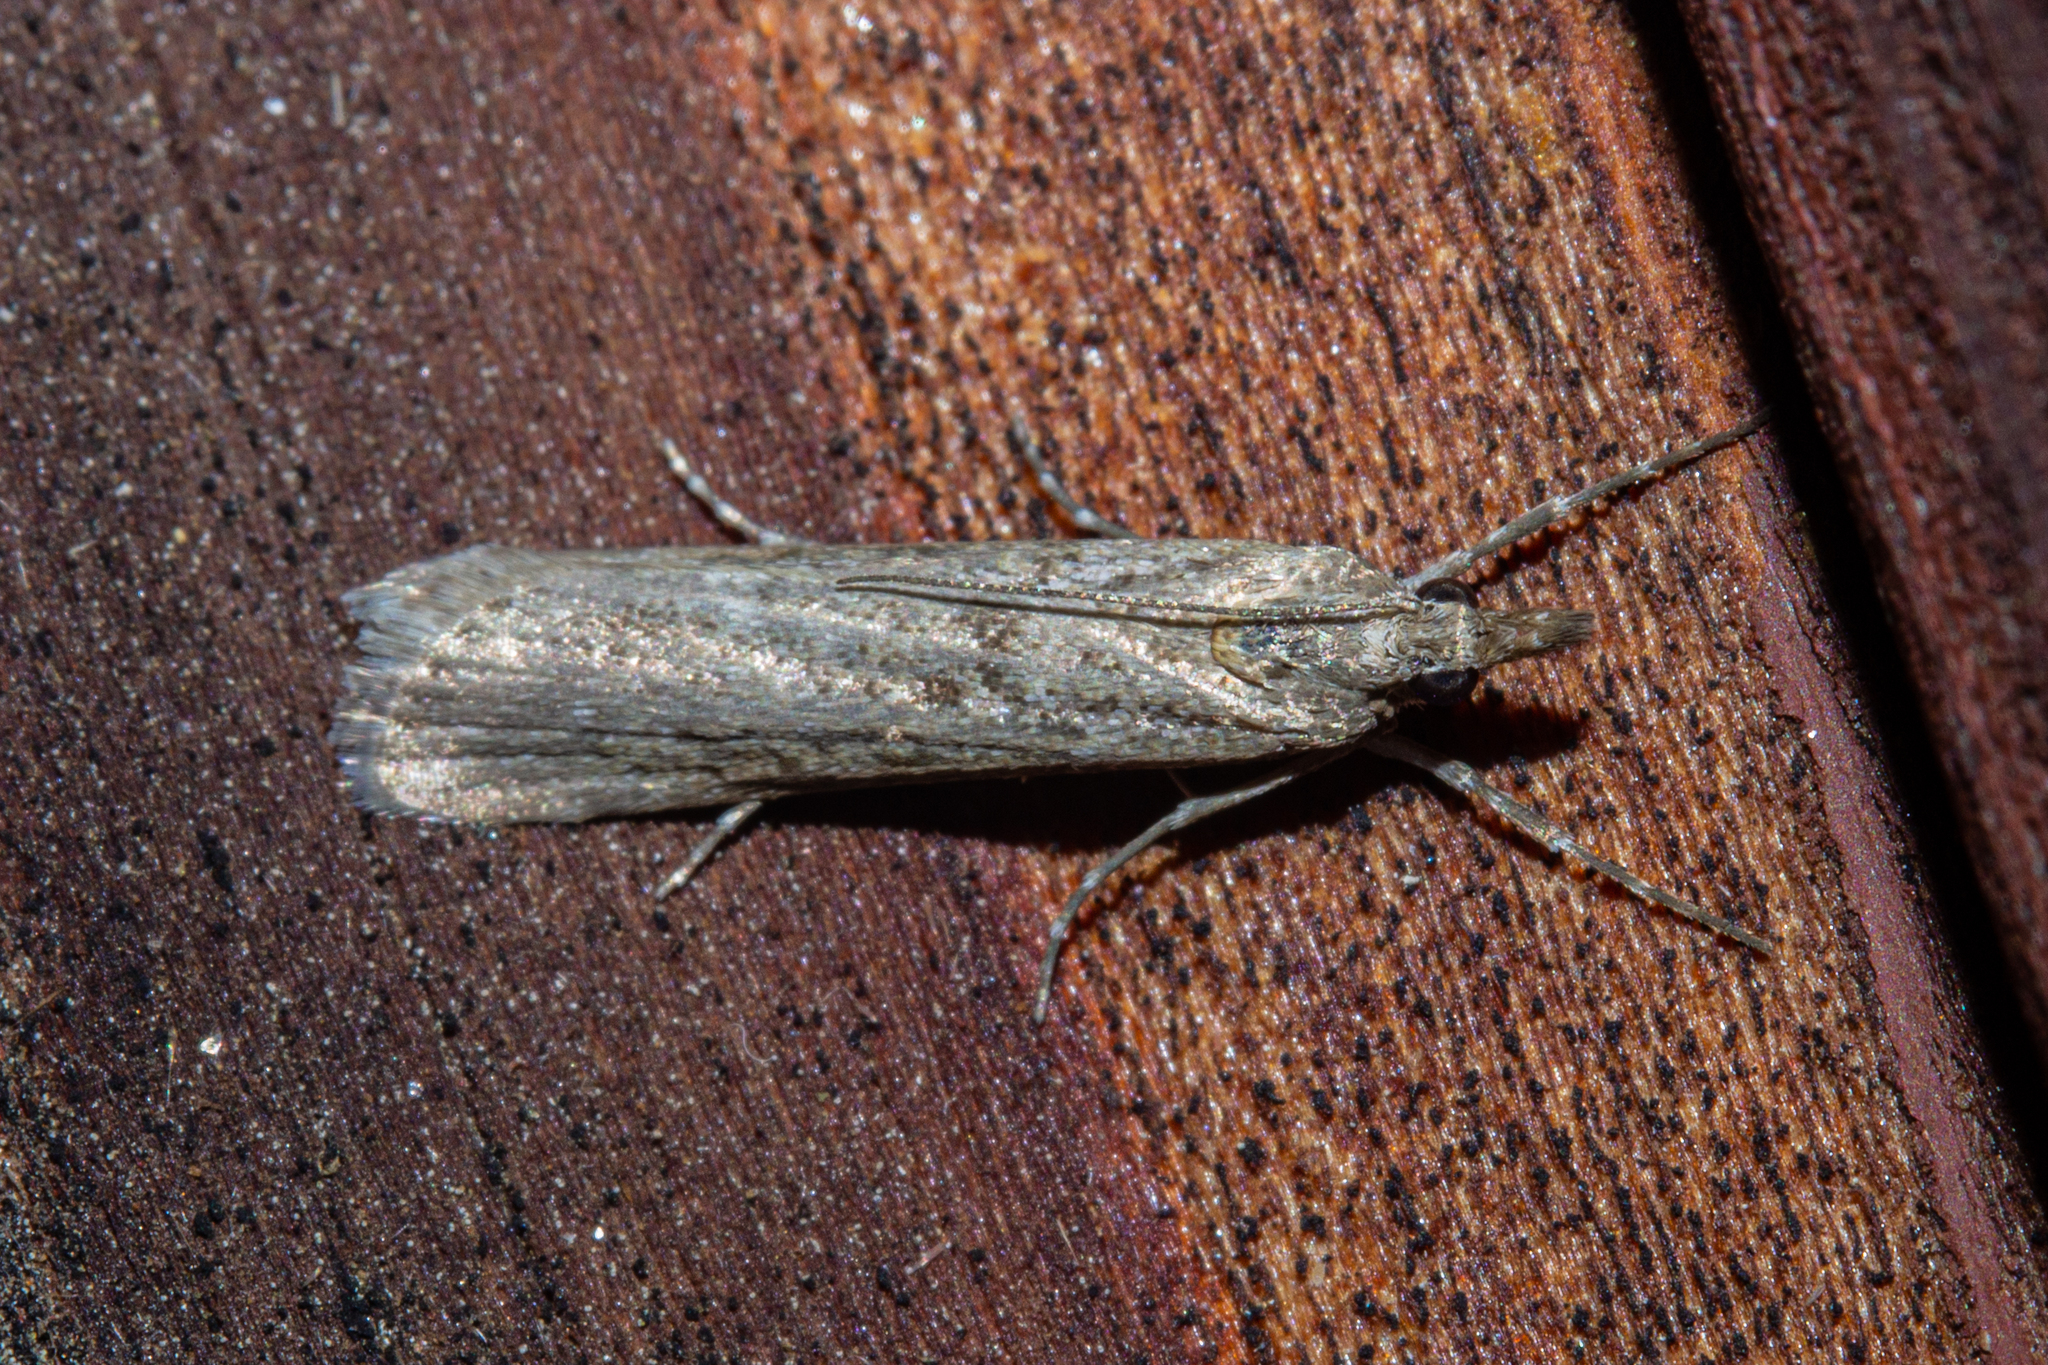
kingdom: Animalia
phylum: Arthropoda
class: Insecta
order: Lepidoptera
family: Crambidae
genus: Eudonia
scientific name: Eudonia leptalea
